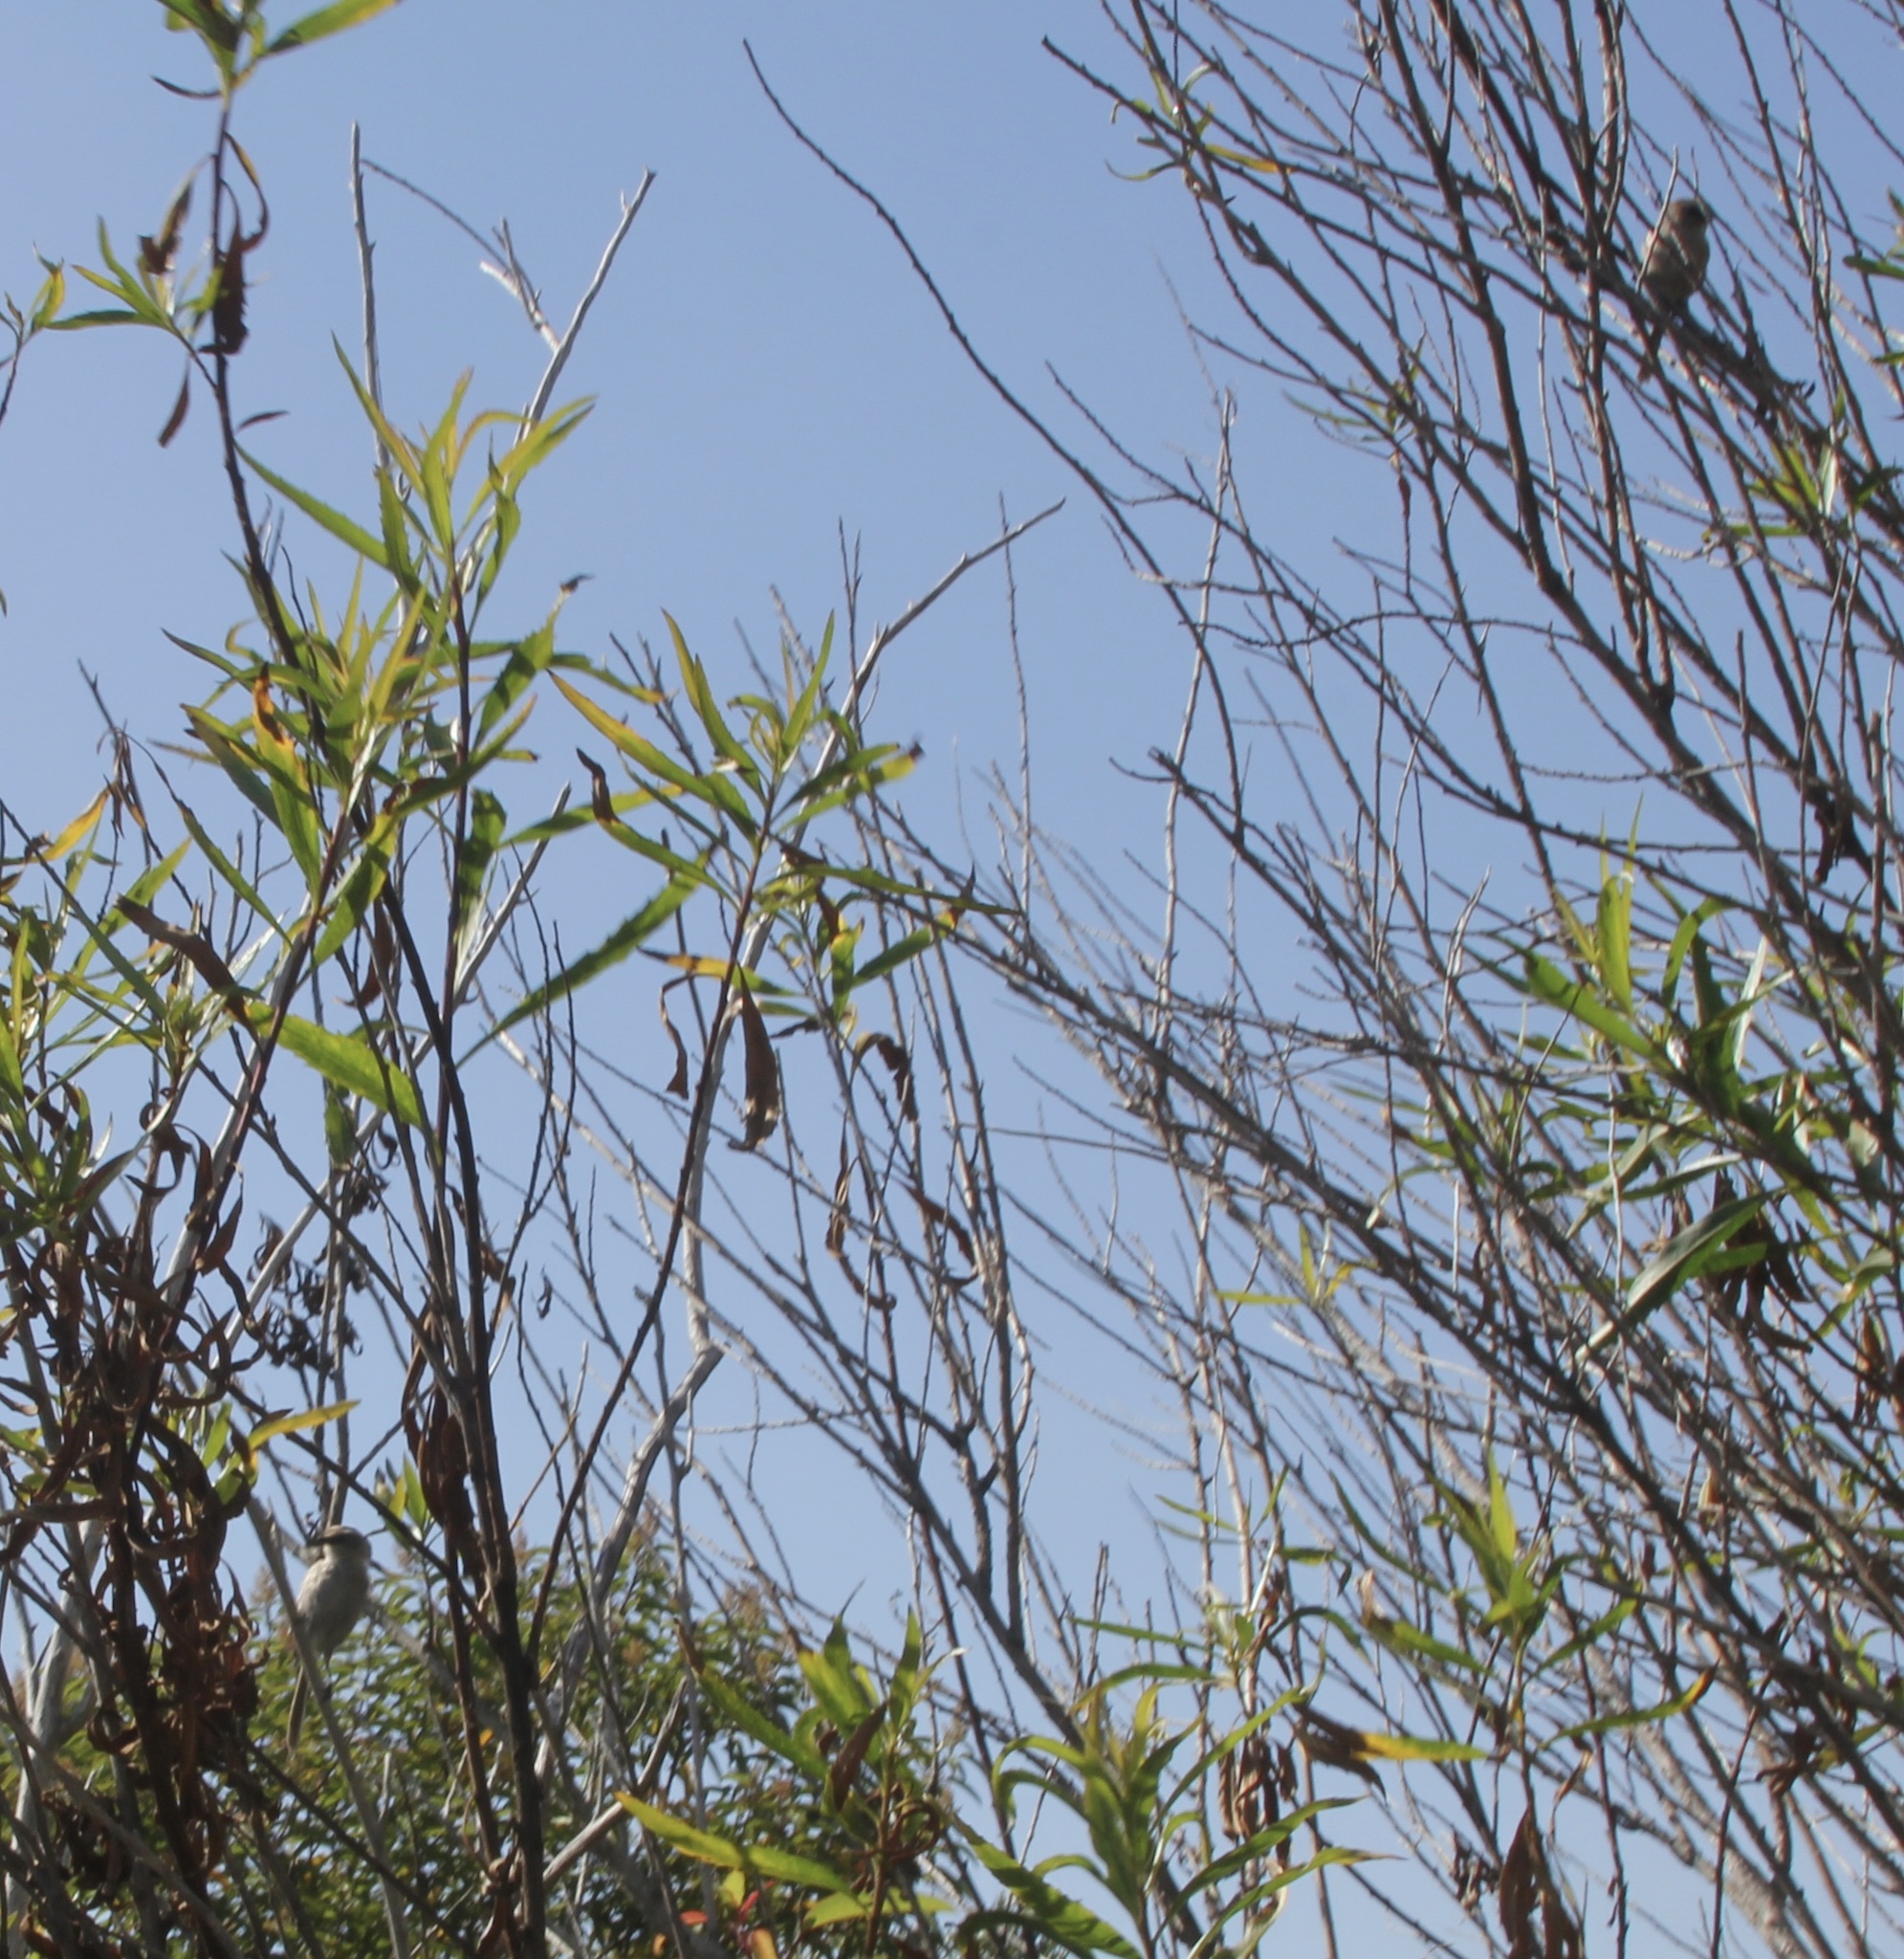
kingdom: Animalia
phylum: Chordata
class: Aves
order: Passeriformes
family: Aegithalidae
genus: Psaltriparus
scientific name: Psaltriparus minimus
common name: American bushtit
